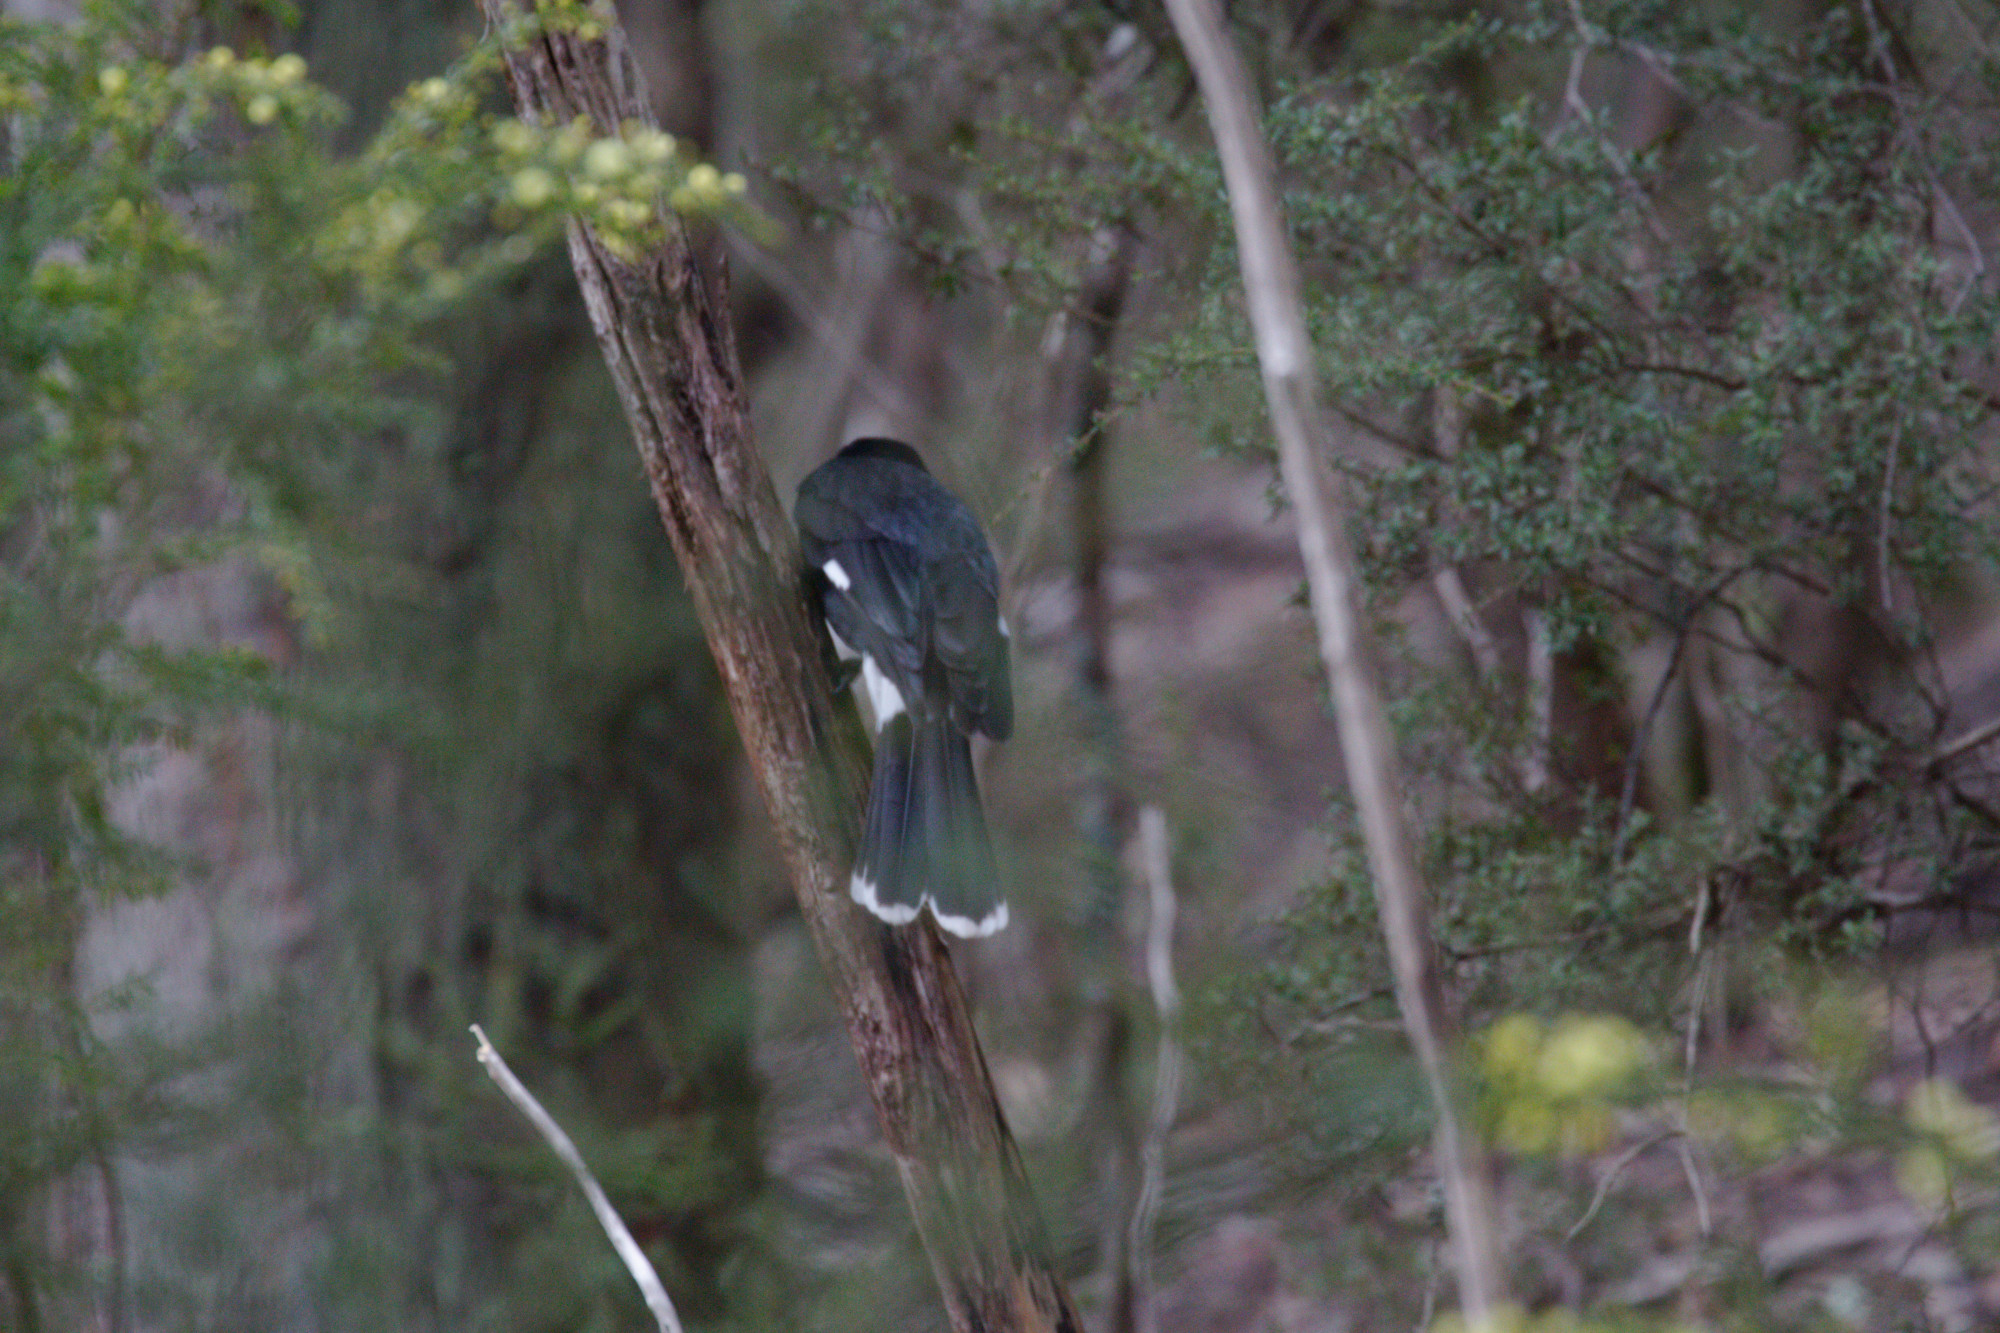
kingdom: Animalia
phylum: Chordata
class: Aves
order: Passeriformes
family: Cracticidae
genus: Strepera
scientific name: Strepera graculina
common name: Pied currawong
